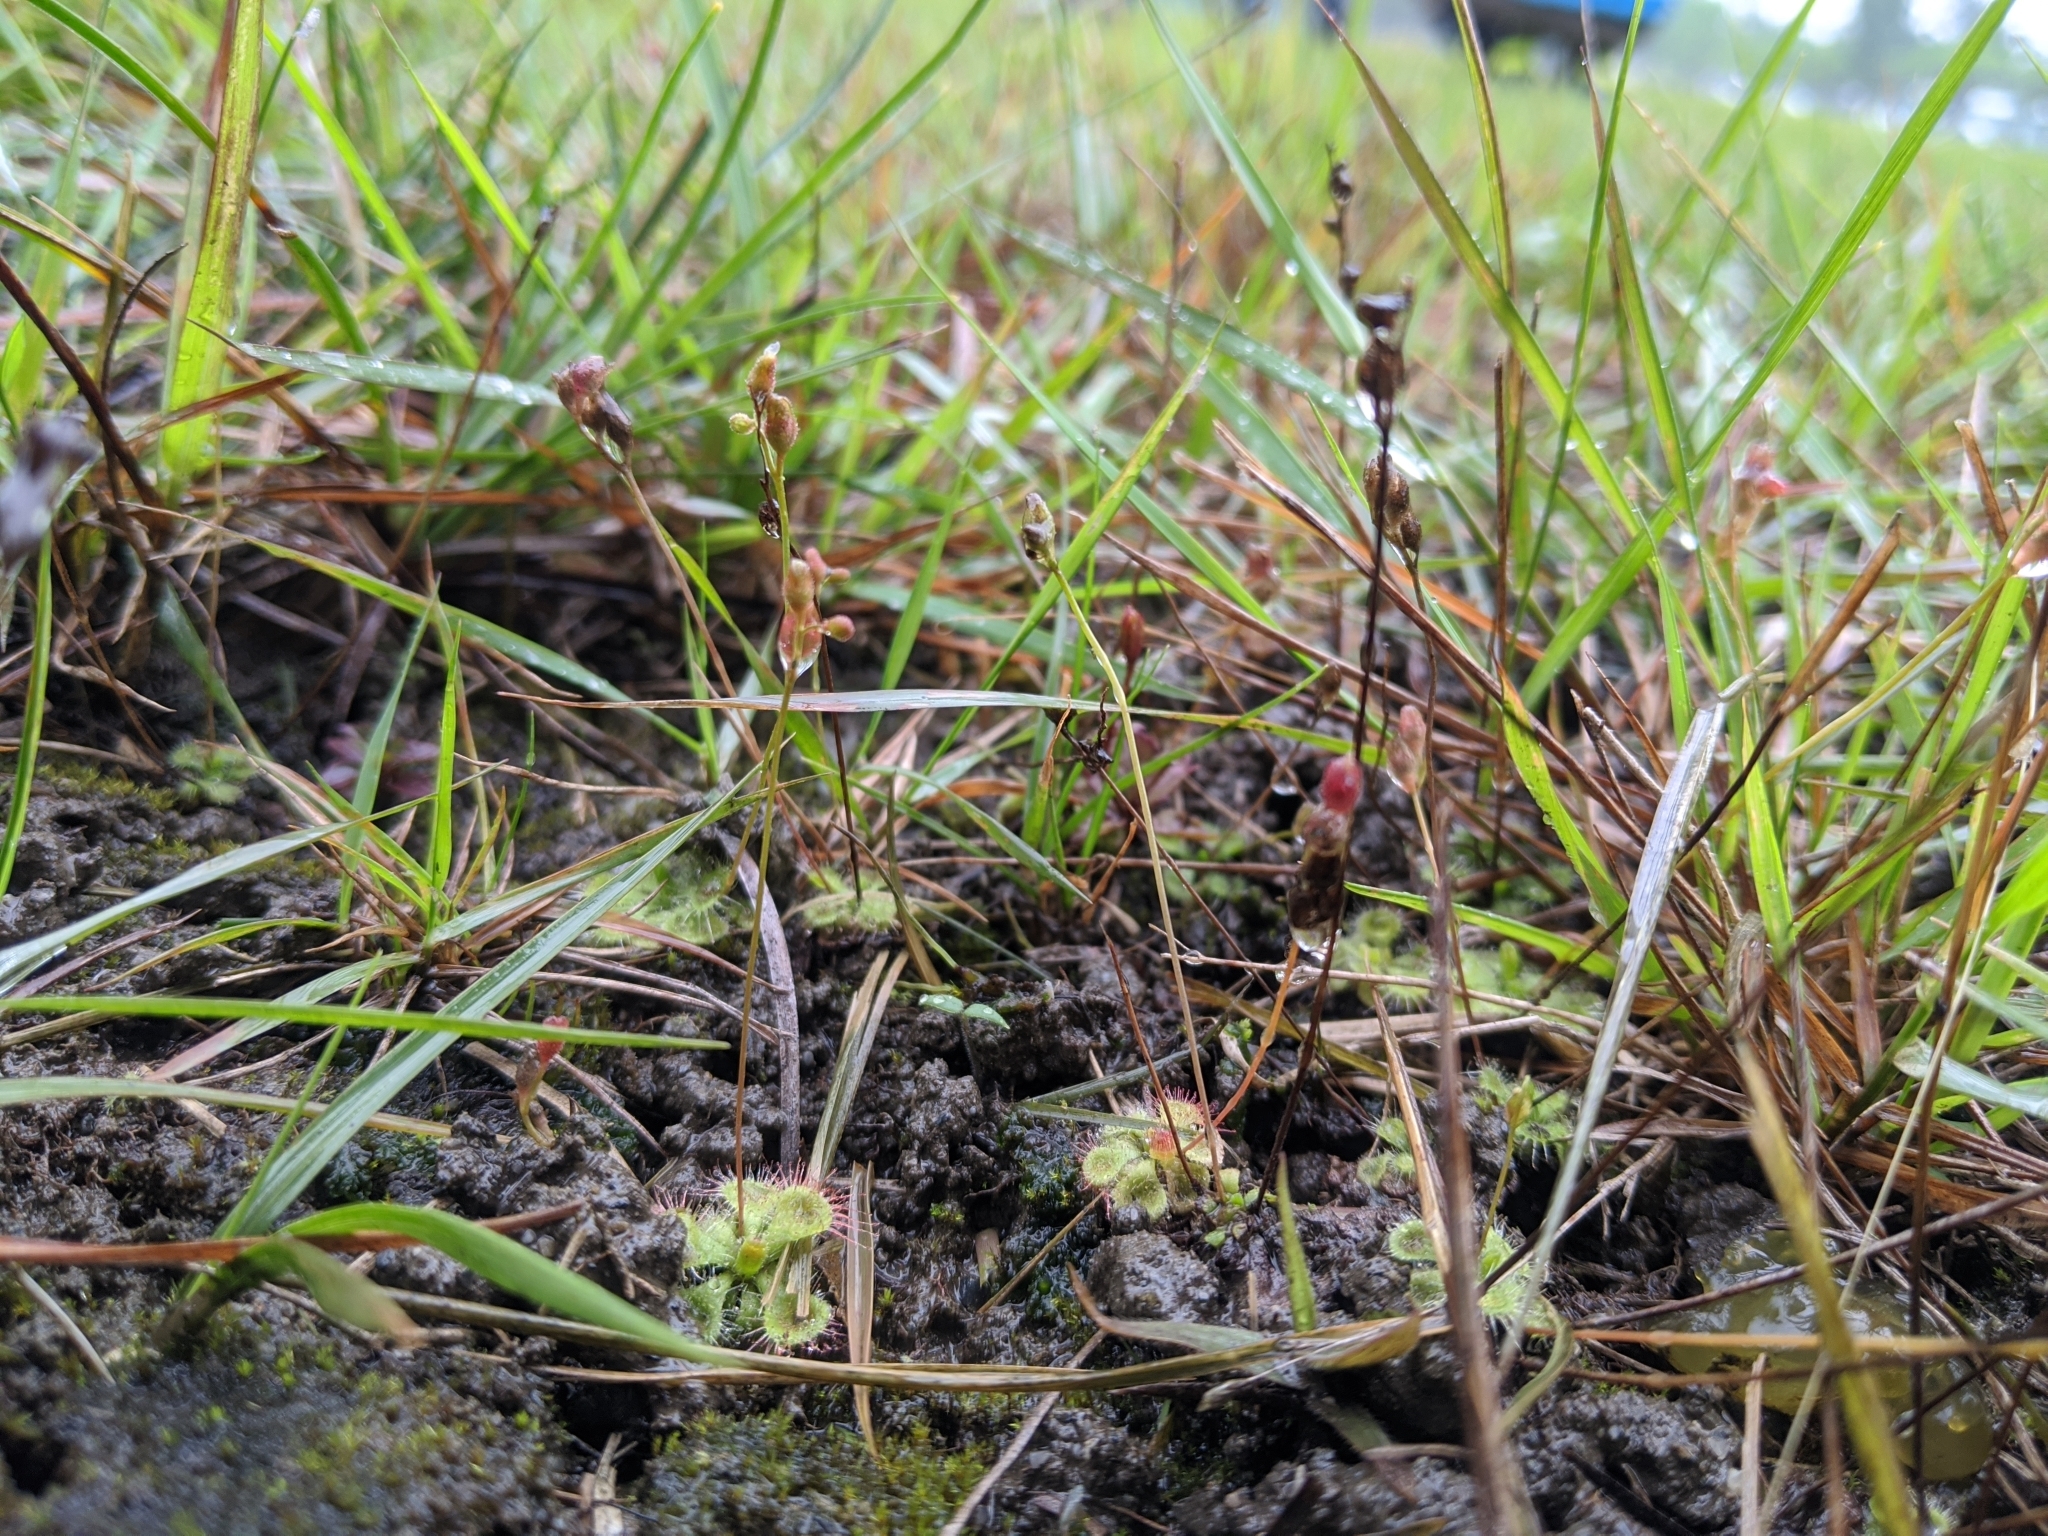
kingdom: Plantae
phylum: Tracheophyta
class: Magnoliopsida
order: Caryophyllales
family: Droseraceae
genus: Drosera
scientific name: Drosera spatulata
